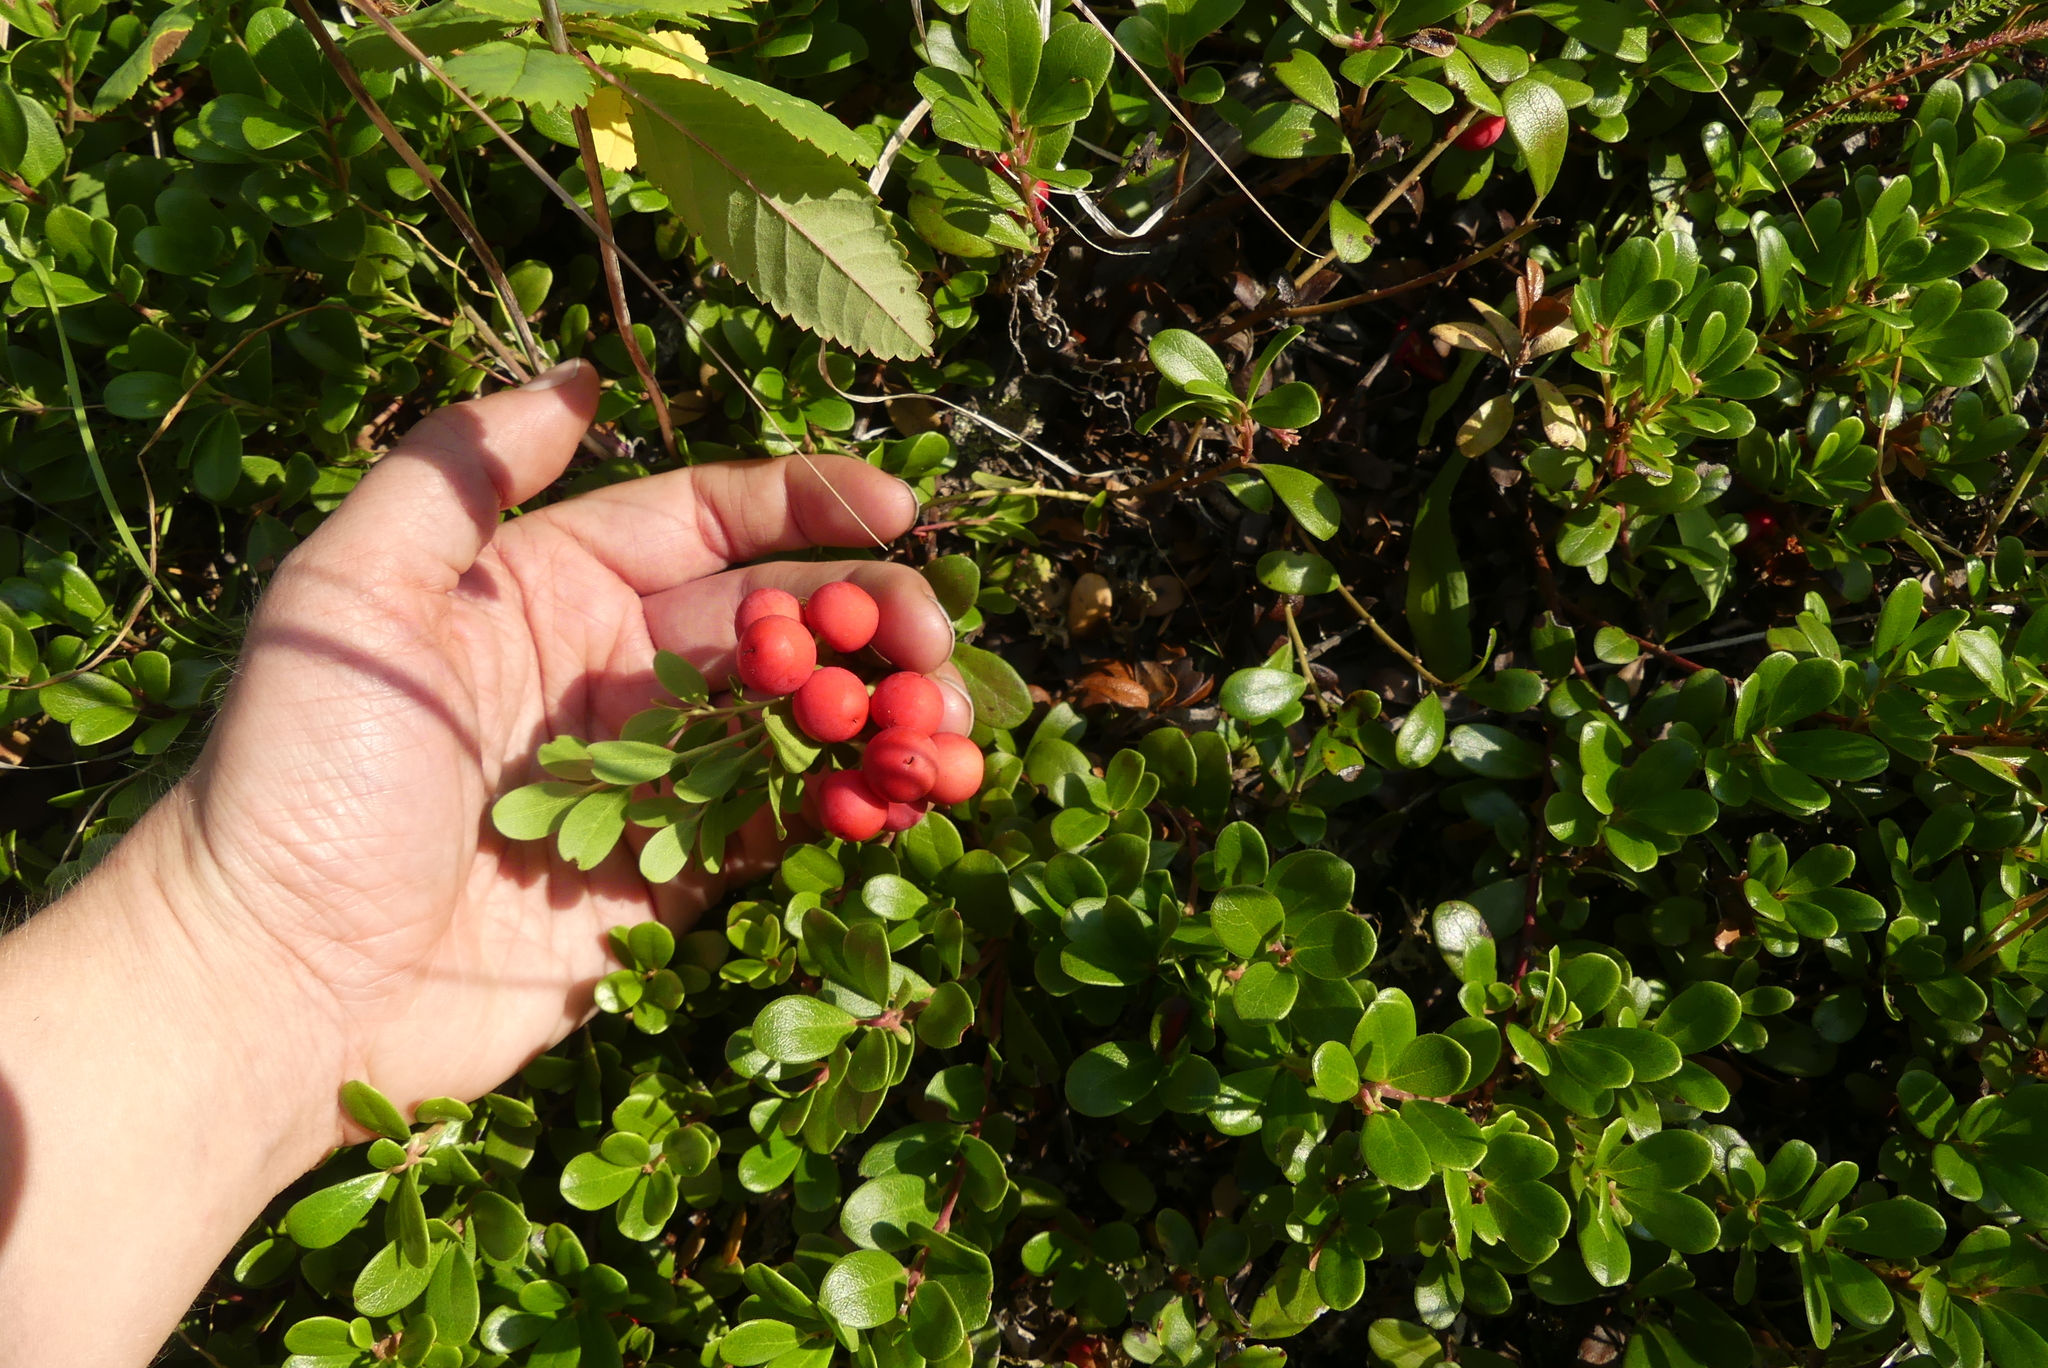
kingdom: Plantae
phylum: Tracheophyta
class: Magnoliopsida
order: Ericales
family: Ericaceae
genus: Arctostaphylos
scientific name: Arctostaphylos uva-ursi
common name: Bearberry
